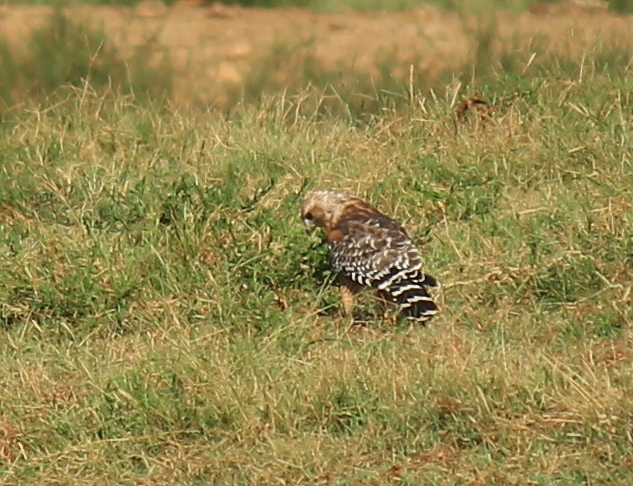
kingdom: Animalia
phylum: Chordata
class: Aves
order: Accipitriformes
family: Accipitridae
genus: Buteo
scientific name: Buteo lineatus
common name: Red-shouldered hawk
